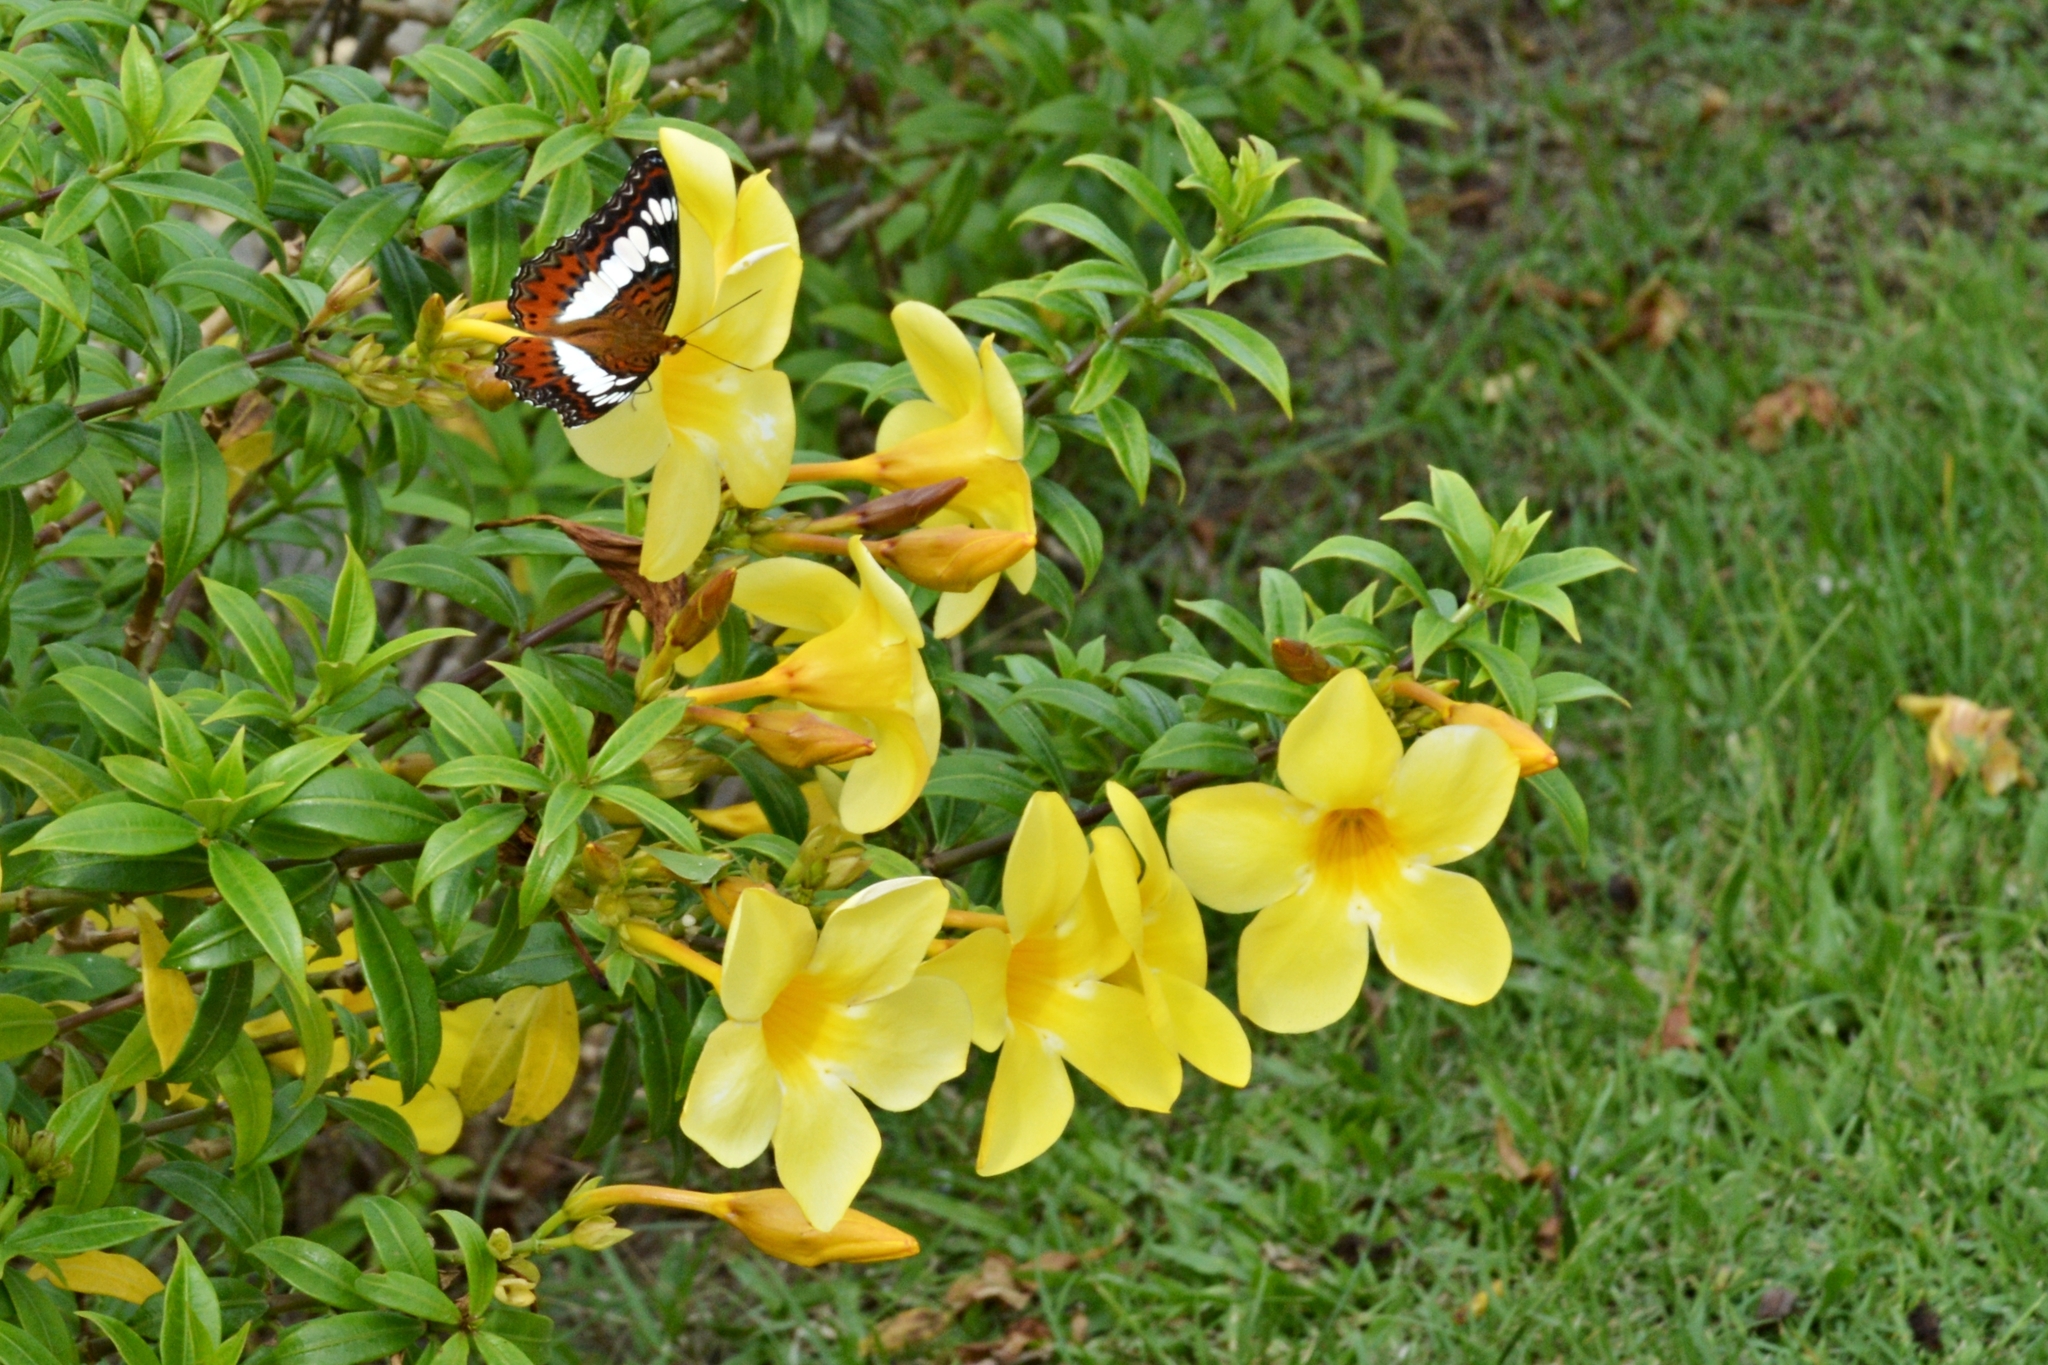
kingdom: Animalia
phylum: Arthropoda
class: Insecta
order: Lepidoptera
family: Nymphalidae
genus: Limenitis
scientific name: Limenitis Moduza procris
